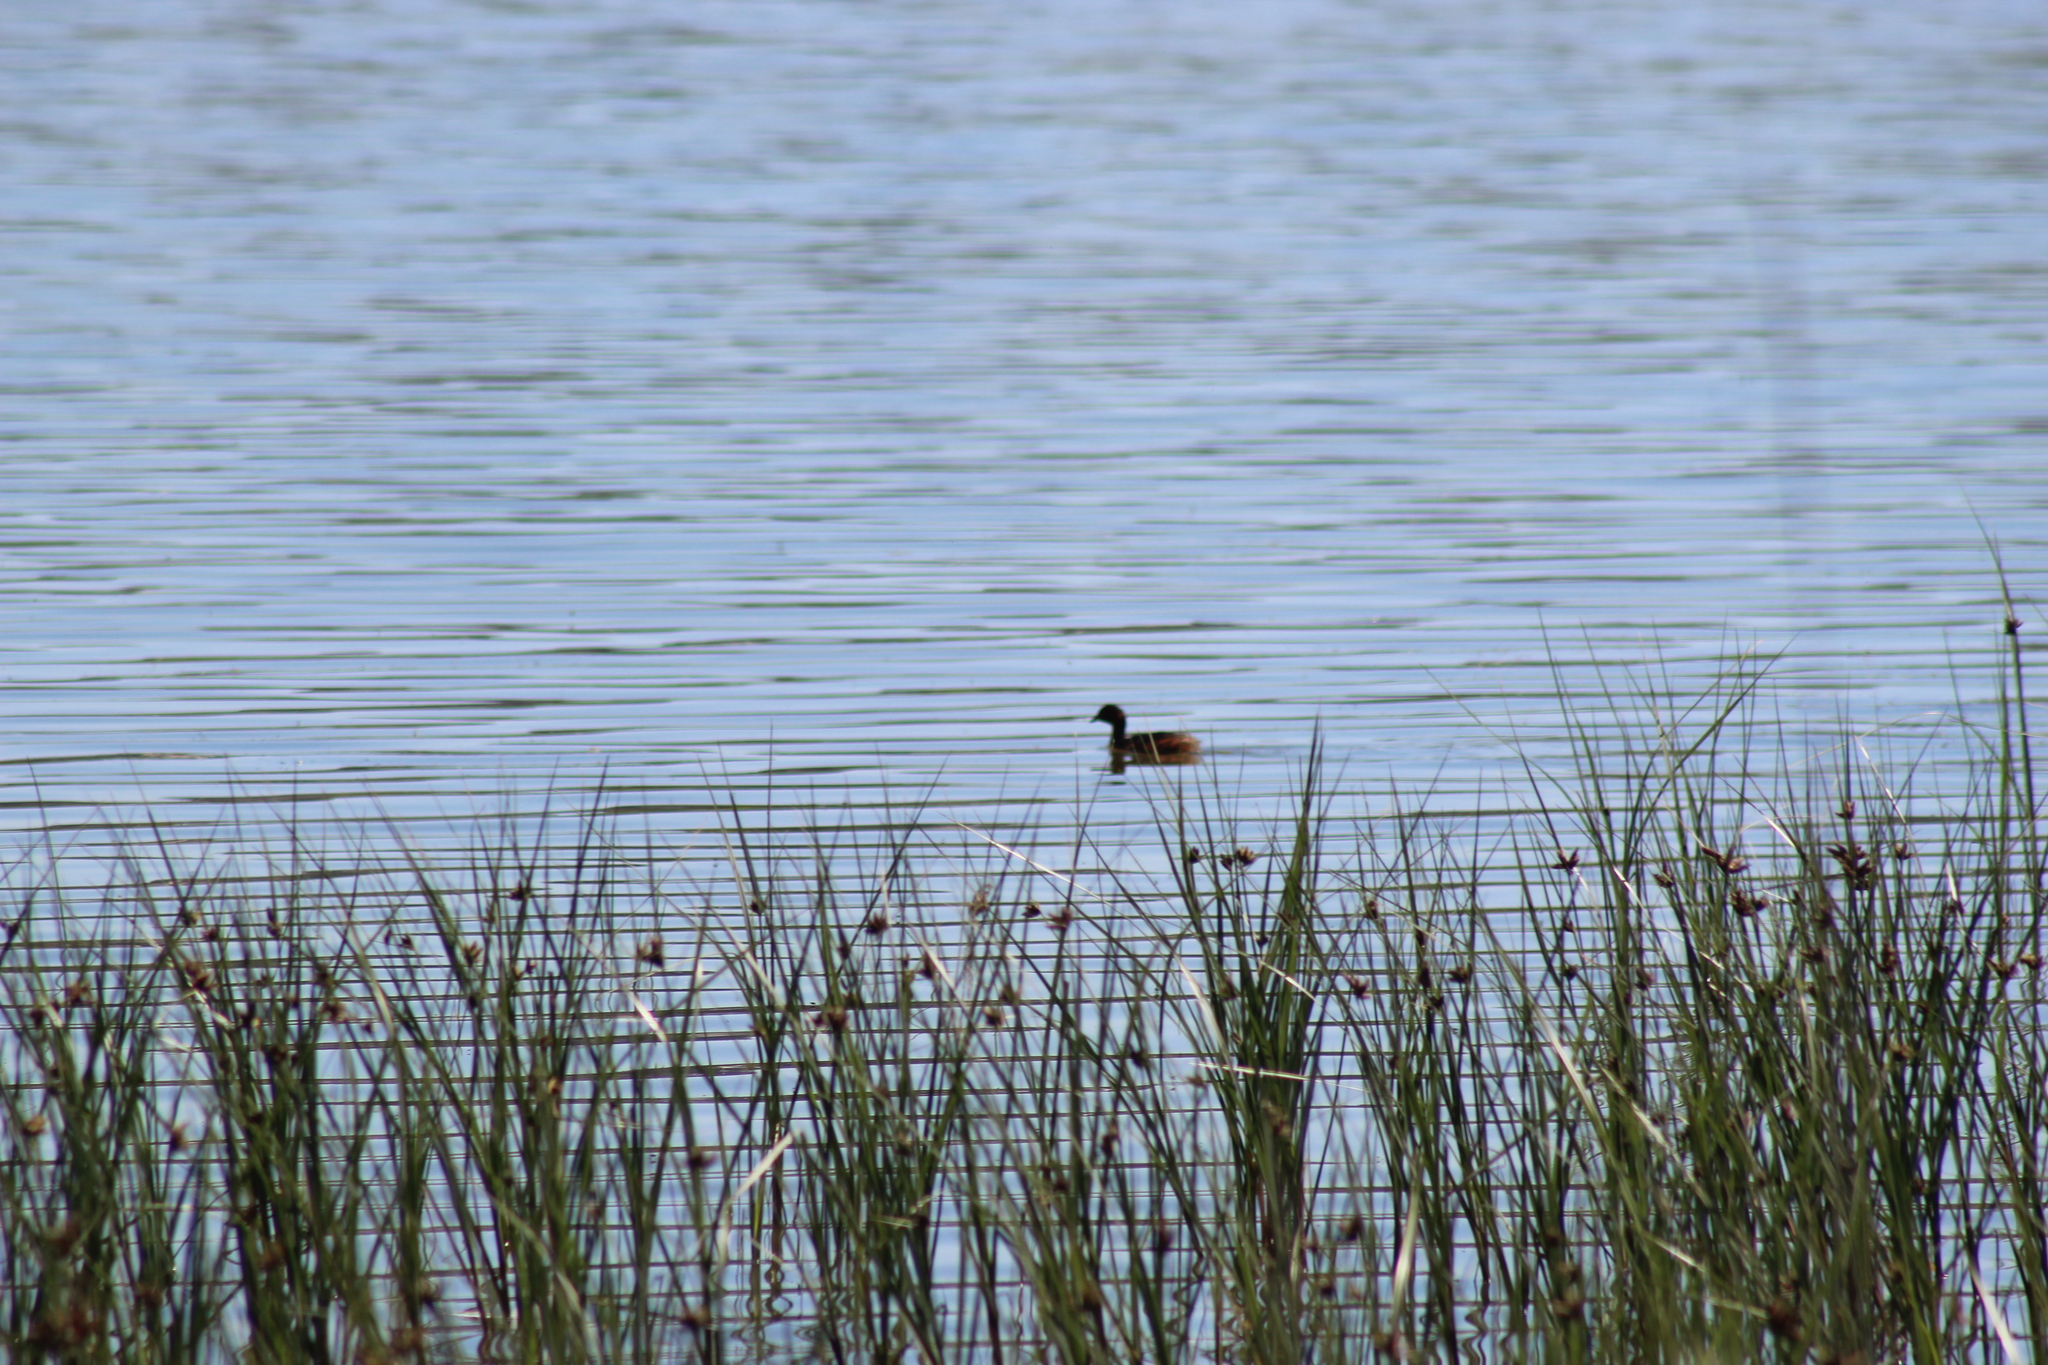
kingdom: Animalia
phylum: Chordata
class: Aves
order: Podicipediformes
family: Podicipedidae
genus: Tachybaptus
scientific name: Tachybaptus ruficollis
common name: Little grebe
